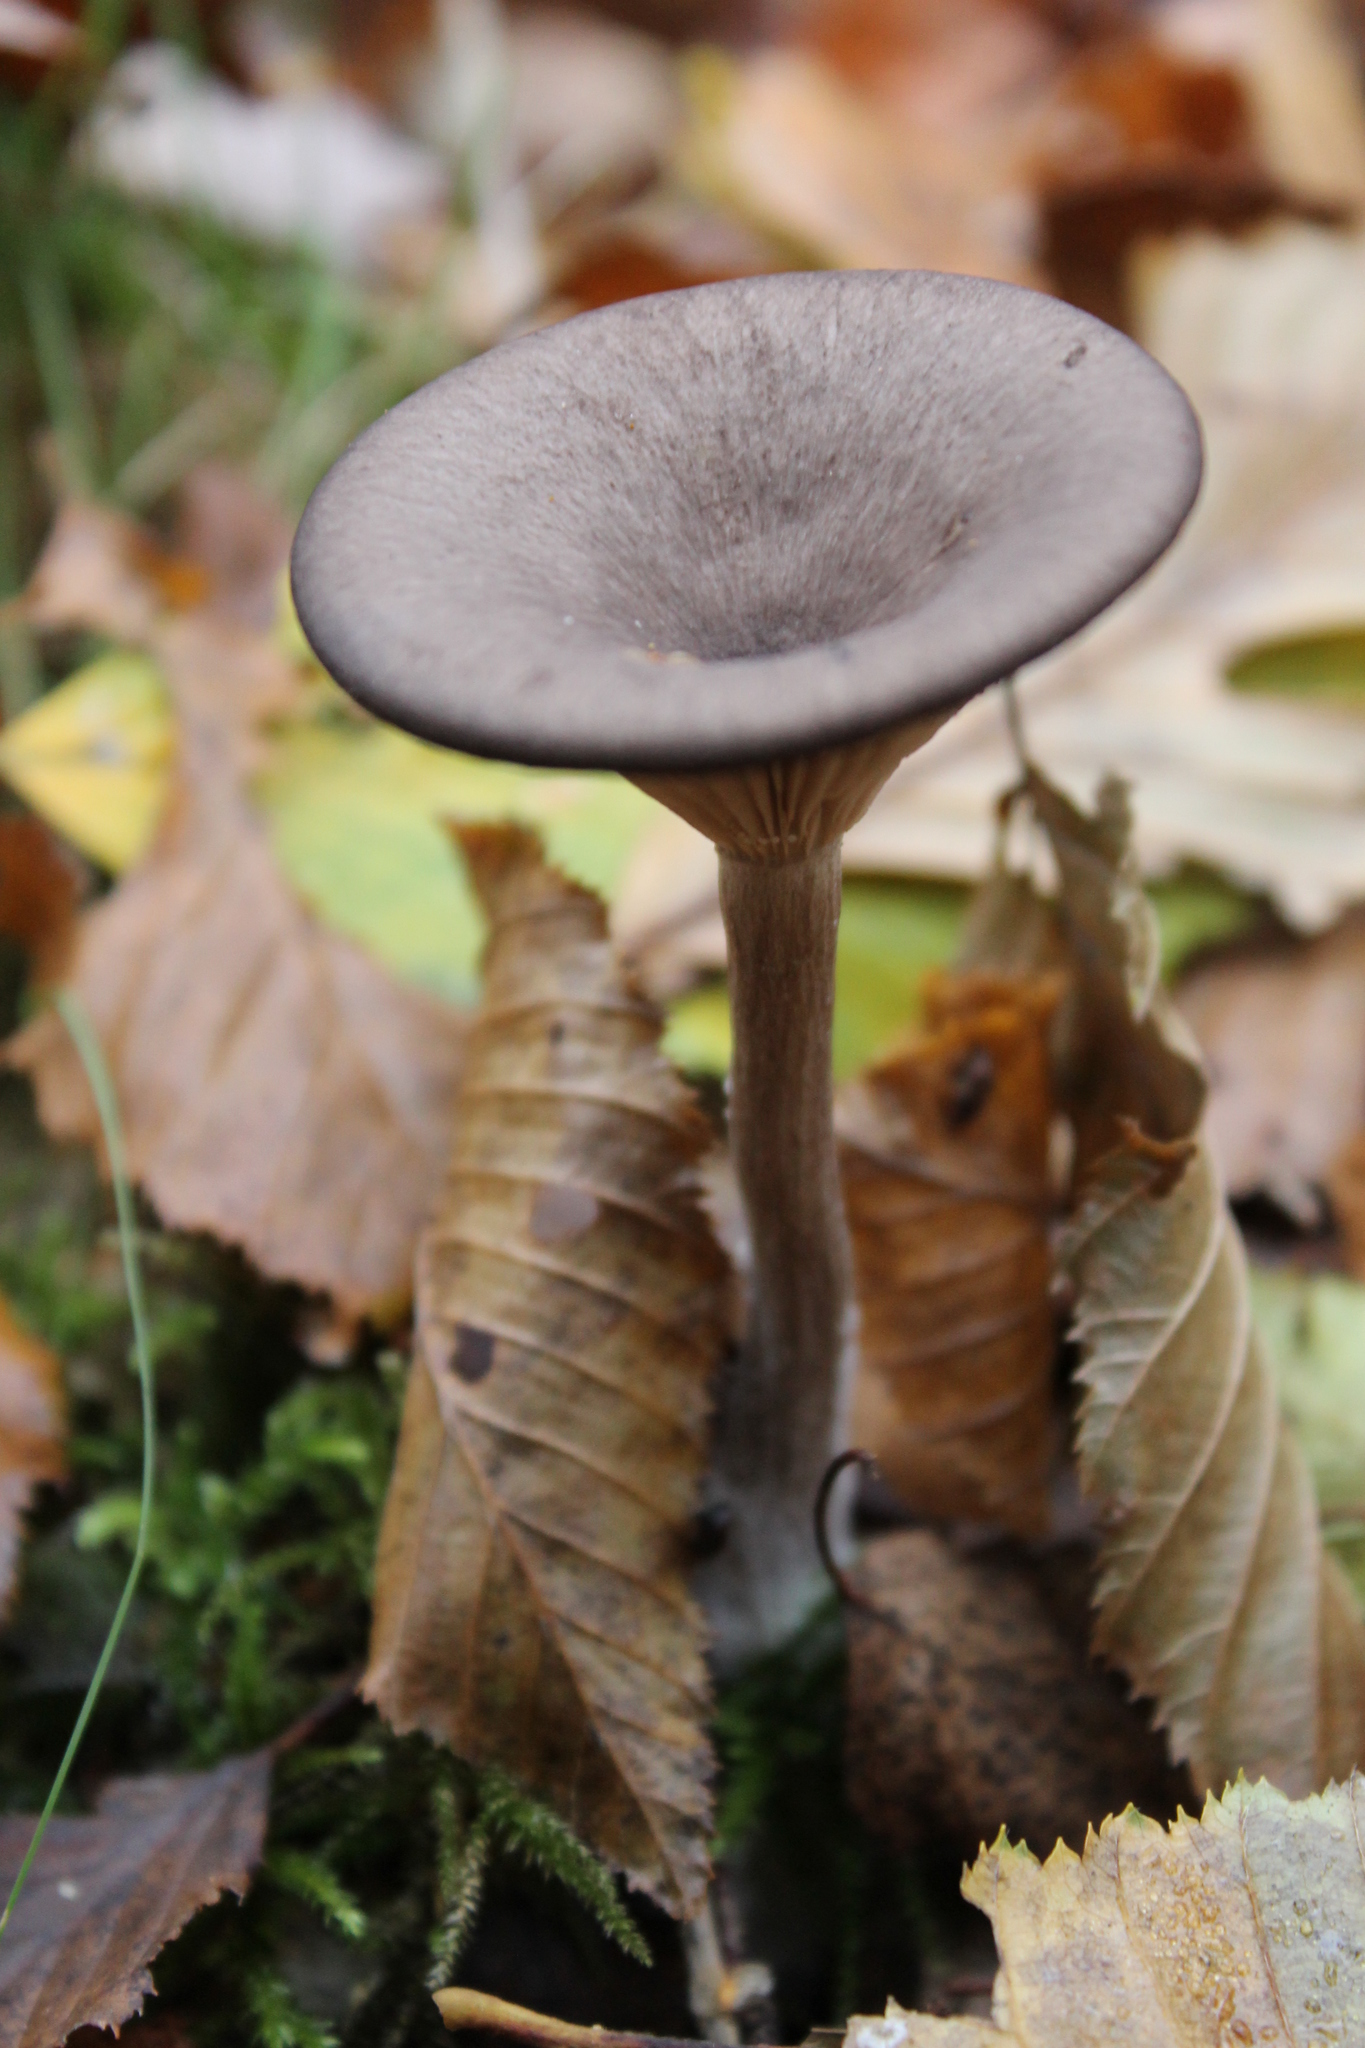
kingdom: Fungi
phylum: Basidiomycota
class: Agaricomycetes
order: Agaricales
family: Pseudoclitocybaceae
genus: Pseudoclitocybe
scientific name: Pseudoclitocybe cyathiformis
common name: Goblet
